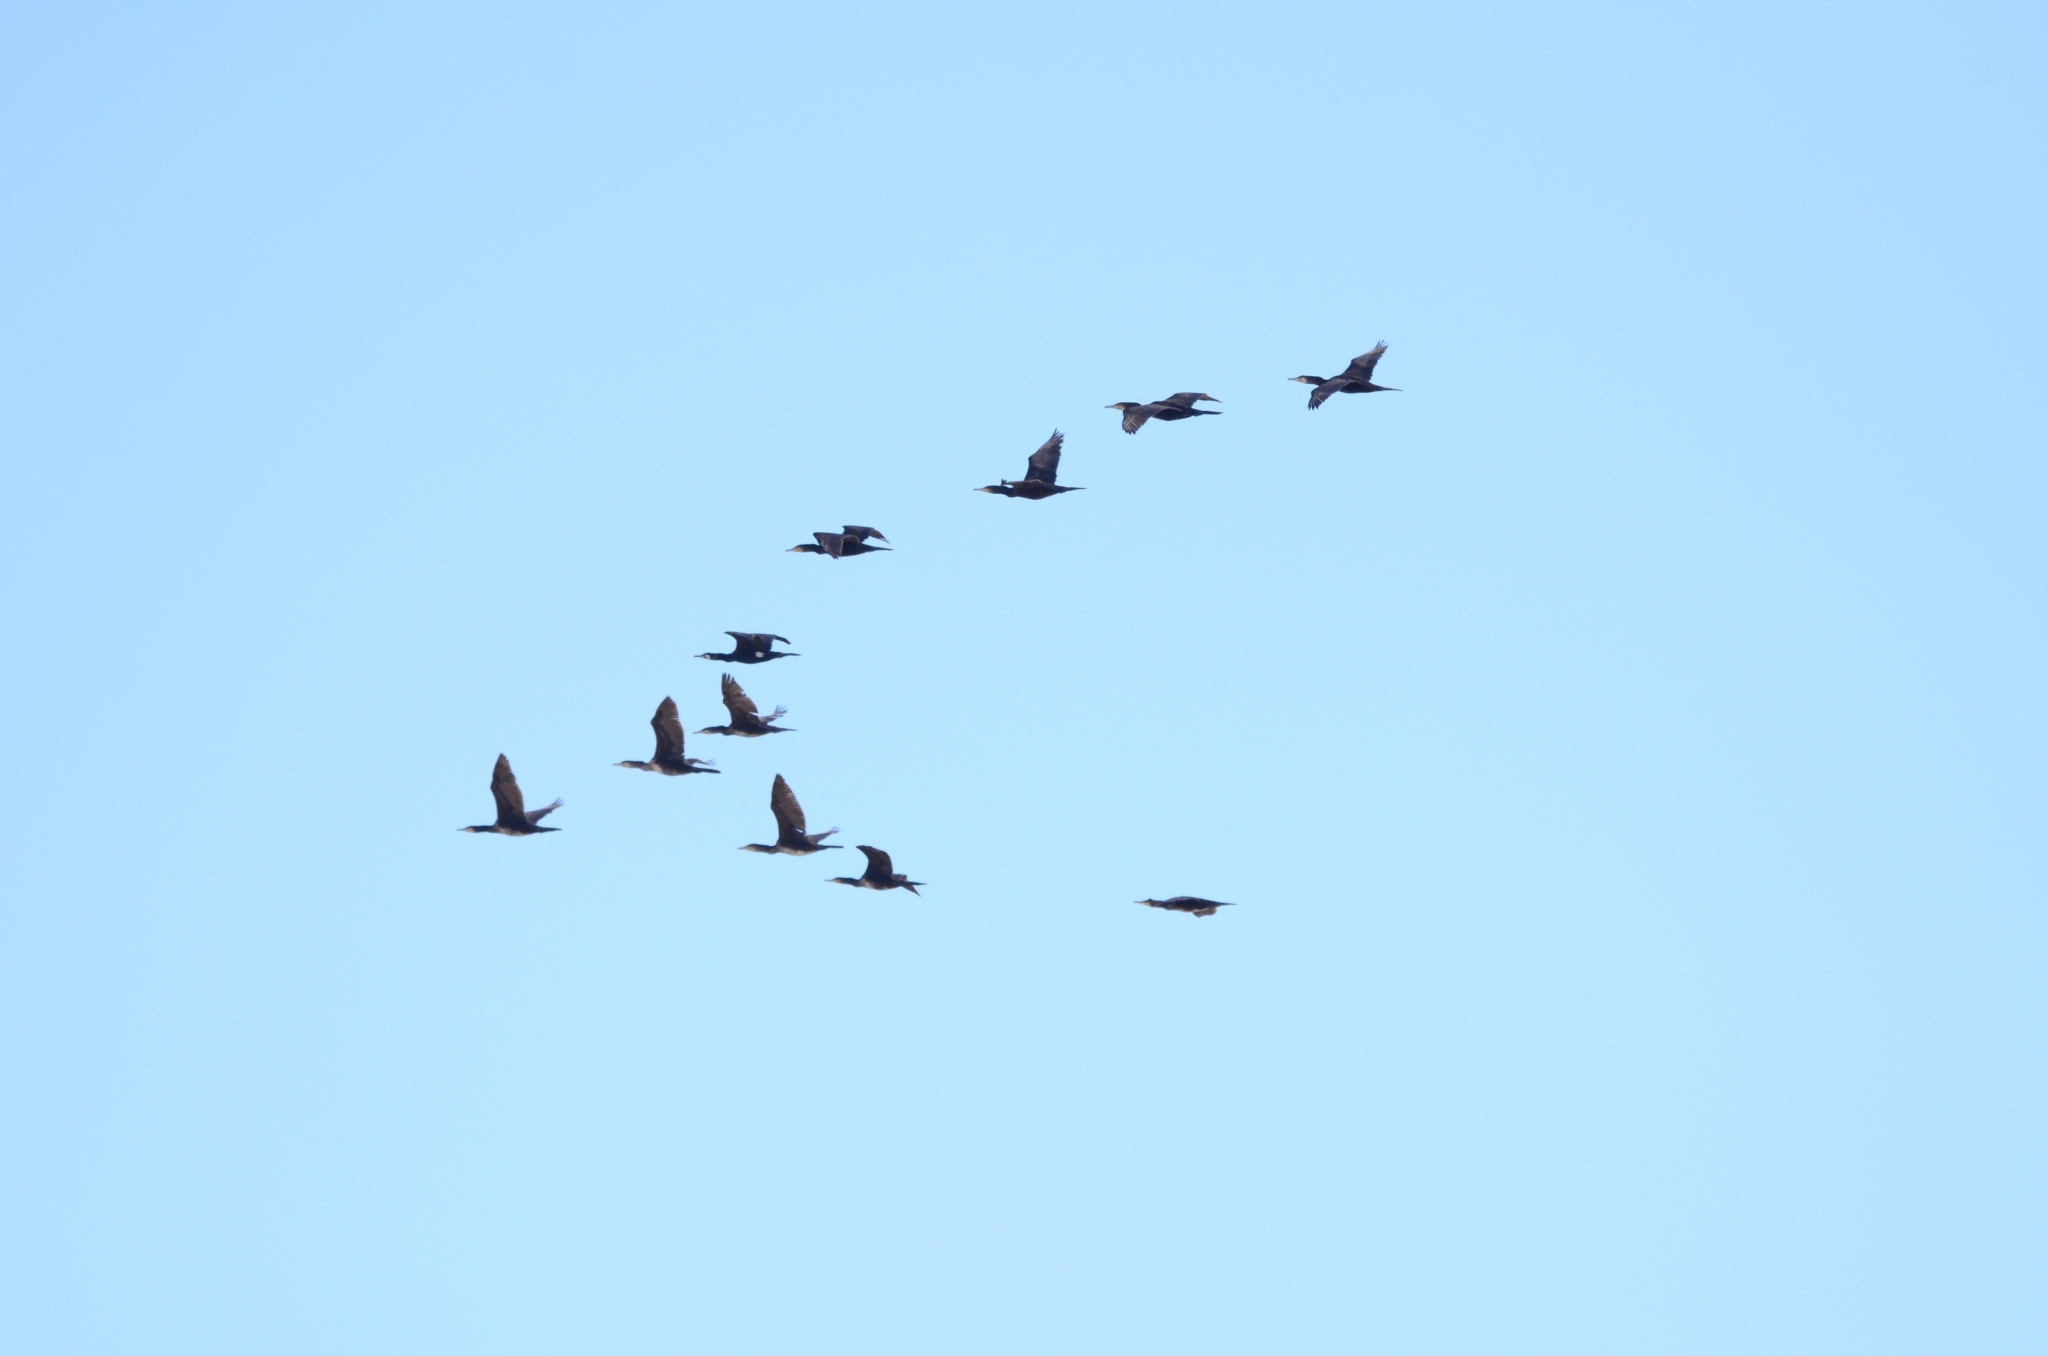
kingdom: Animalia
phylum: Chordata
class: Aves
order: Suliformes
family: Phalacrocoracidae
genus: Phalacrocorax
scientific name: Phalacrocorax carbo
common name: Great cormorant
